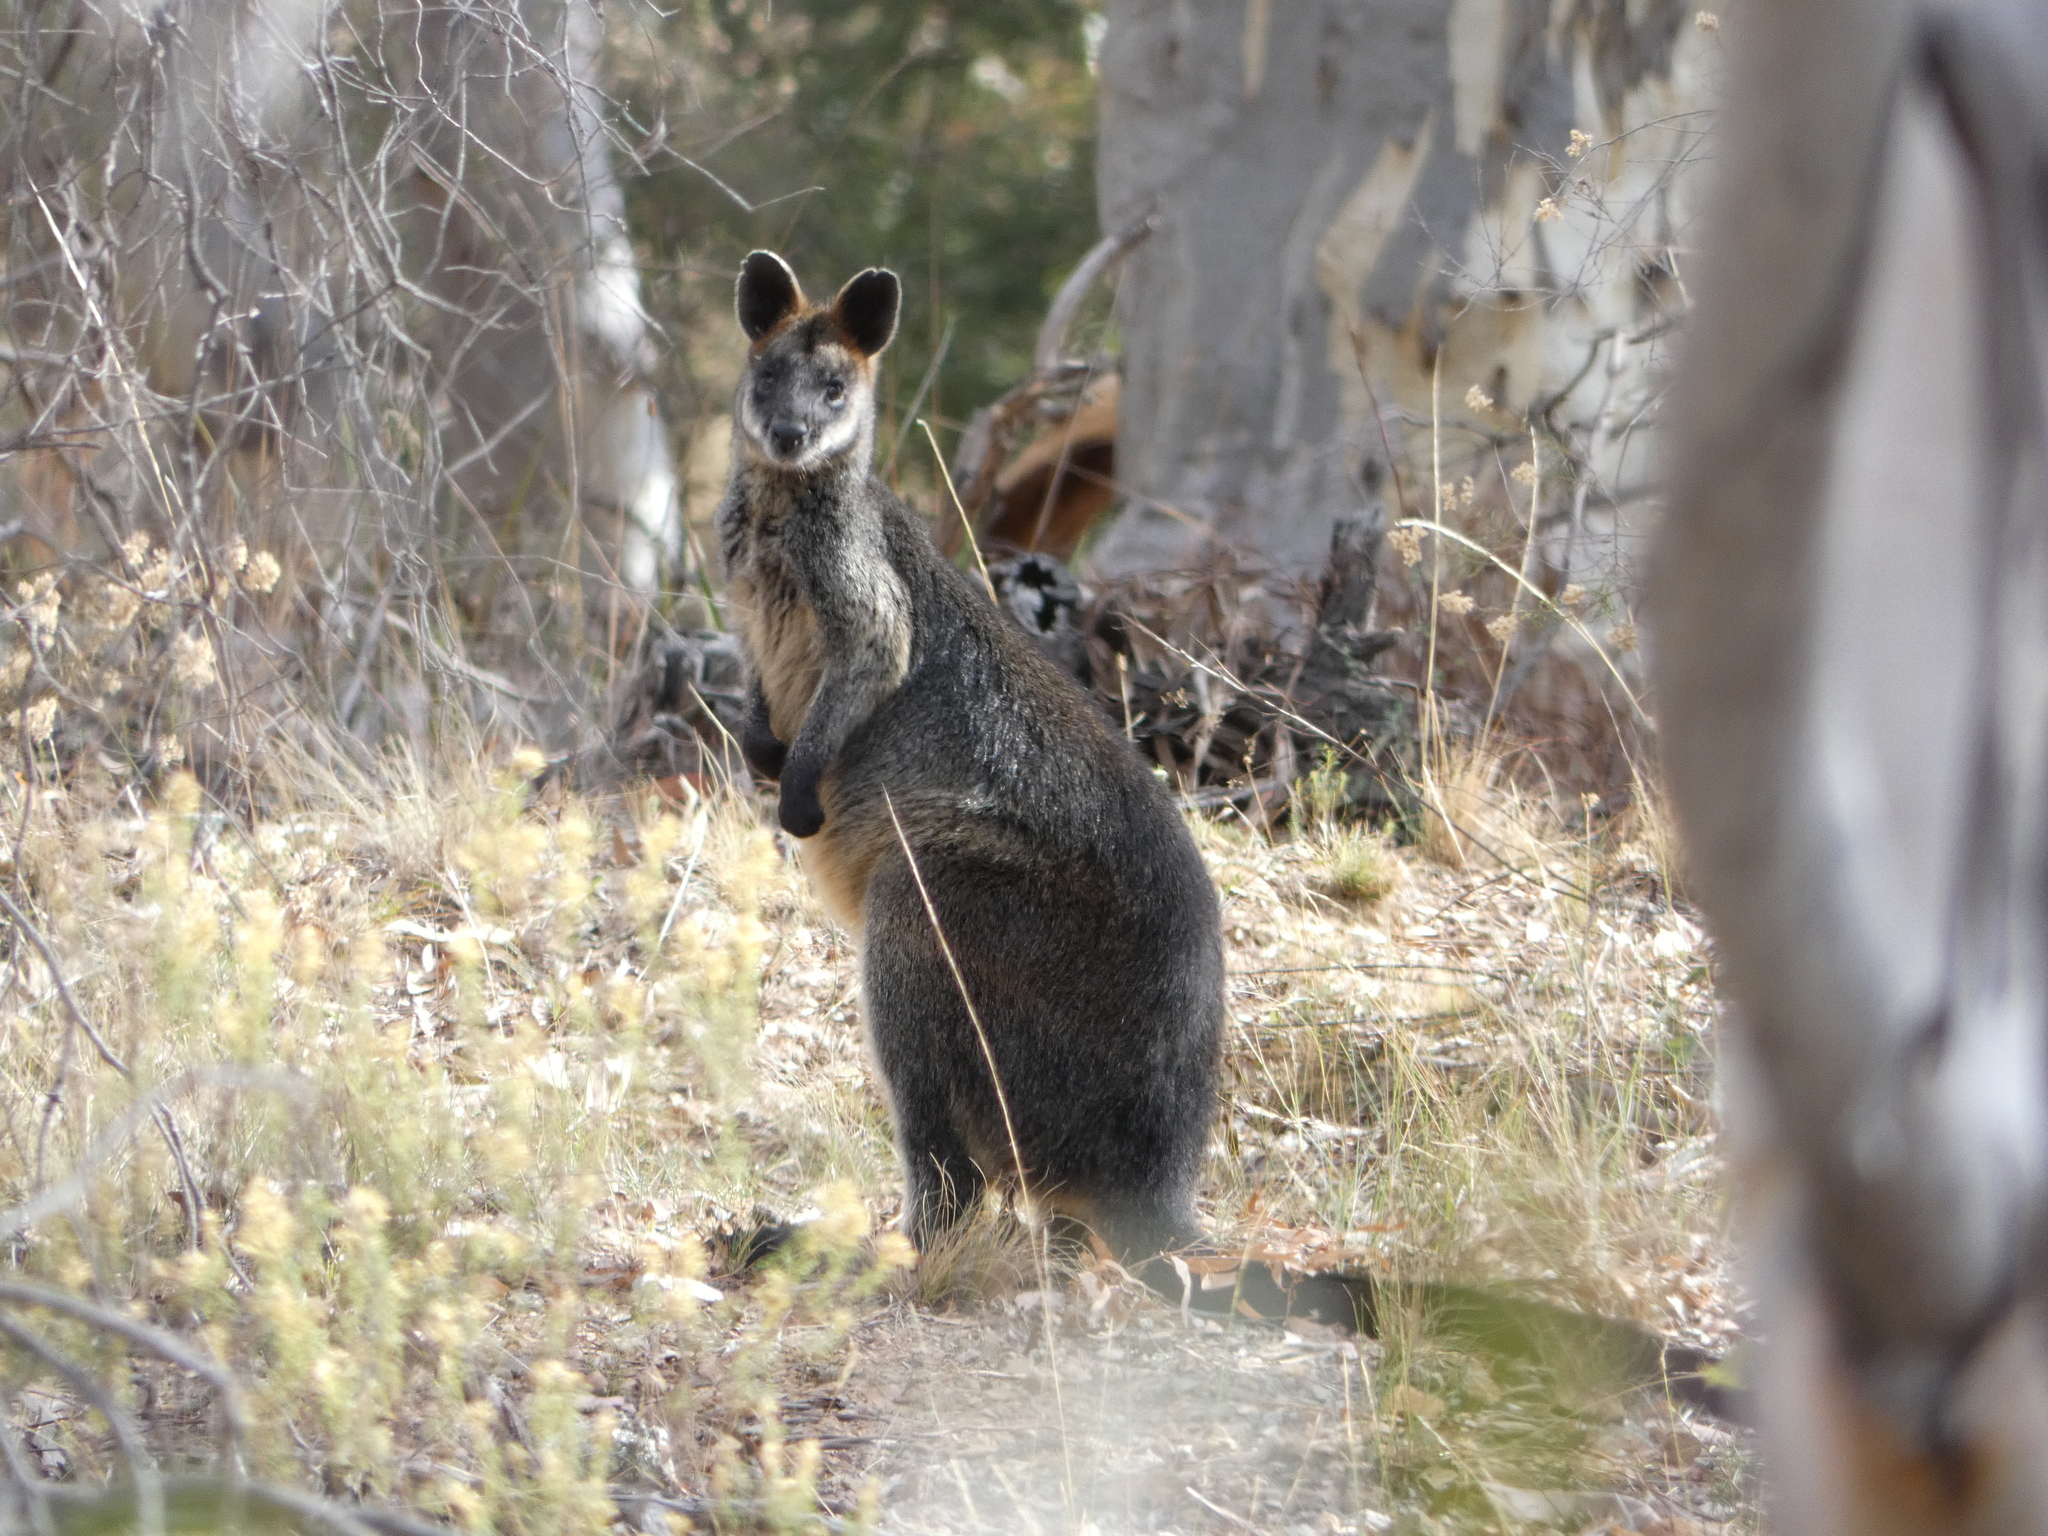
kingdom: Animalia
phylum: Chordata
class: Mammalia
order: Diprotodontia
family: Macropodidae
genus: Wallabia
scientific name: Wallabia bicolor
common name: Swamp wallaby
